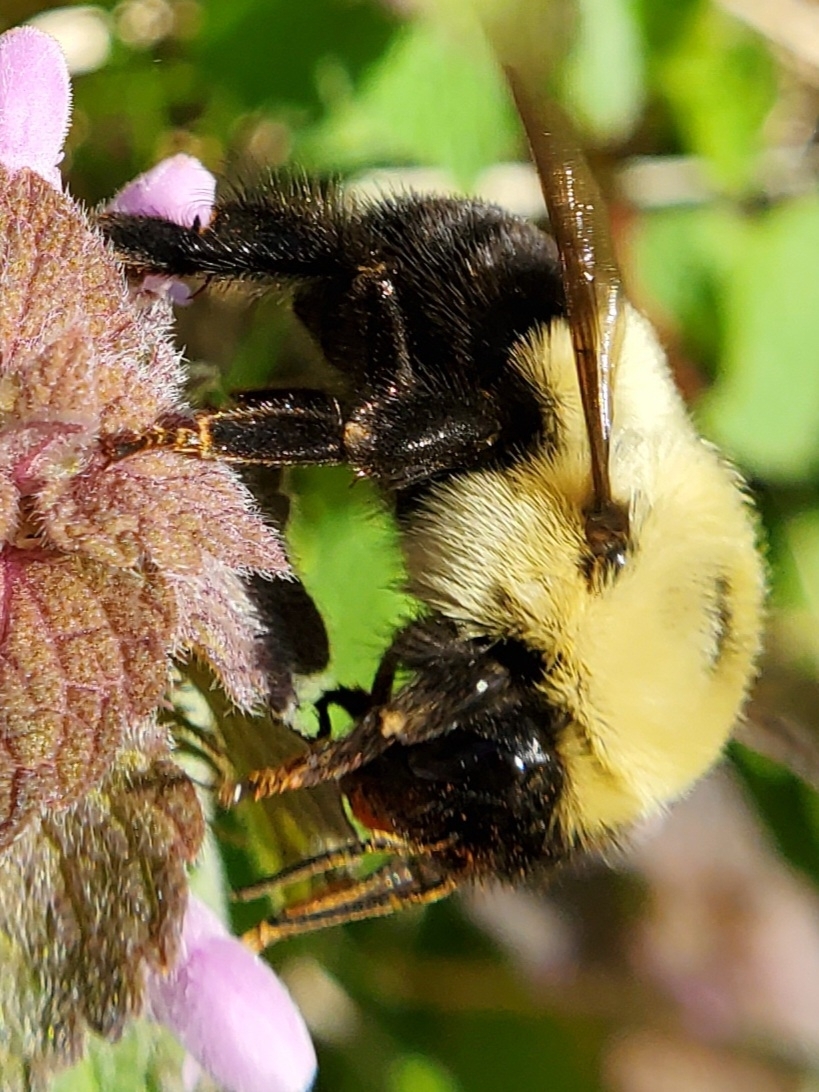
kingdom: Animalia
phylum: Arthropoda
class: Insecta
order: Hymenoptera
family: Apidae
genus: Bombus
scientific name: Bombus bimaculatus
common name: Two-spotted bumble bee
